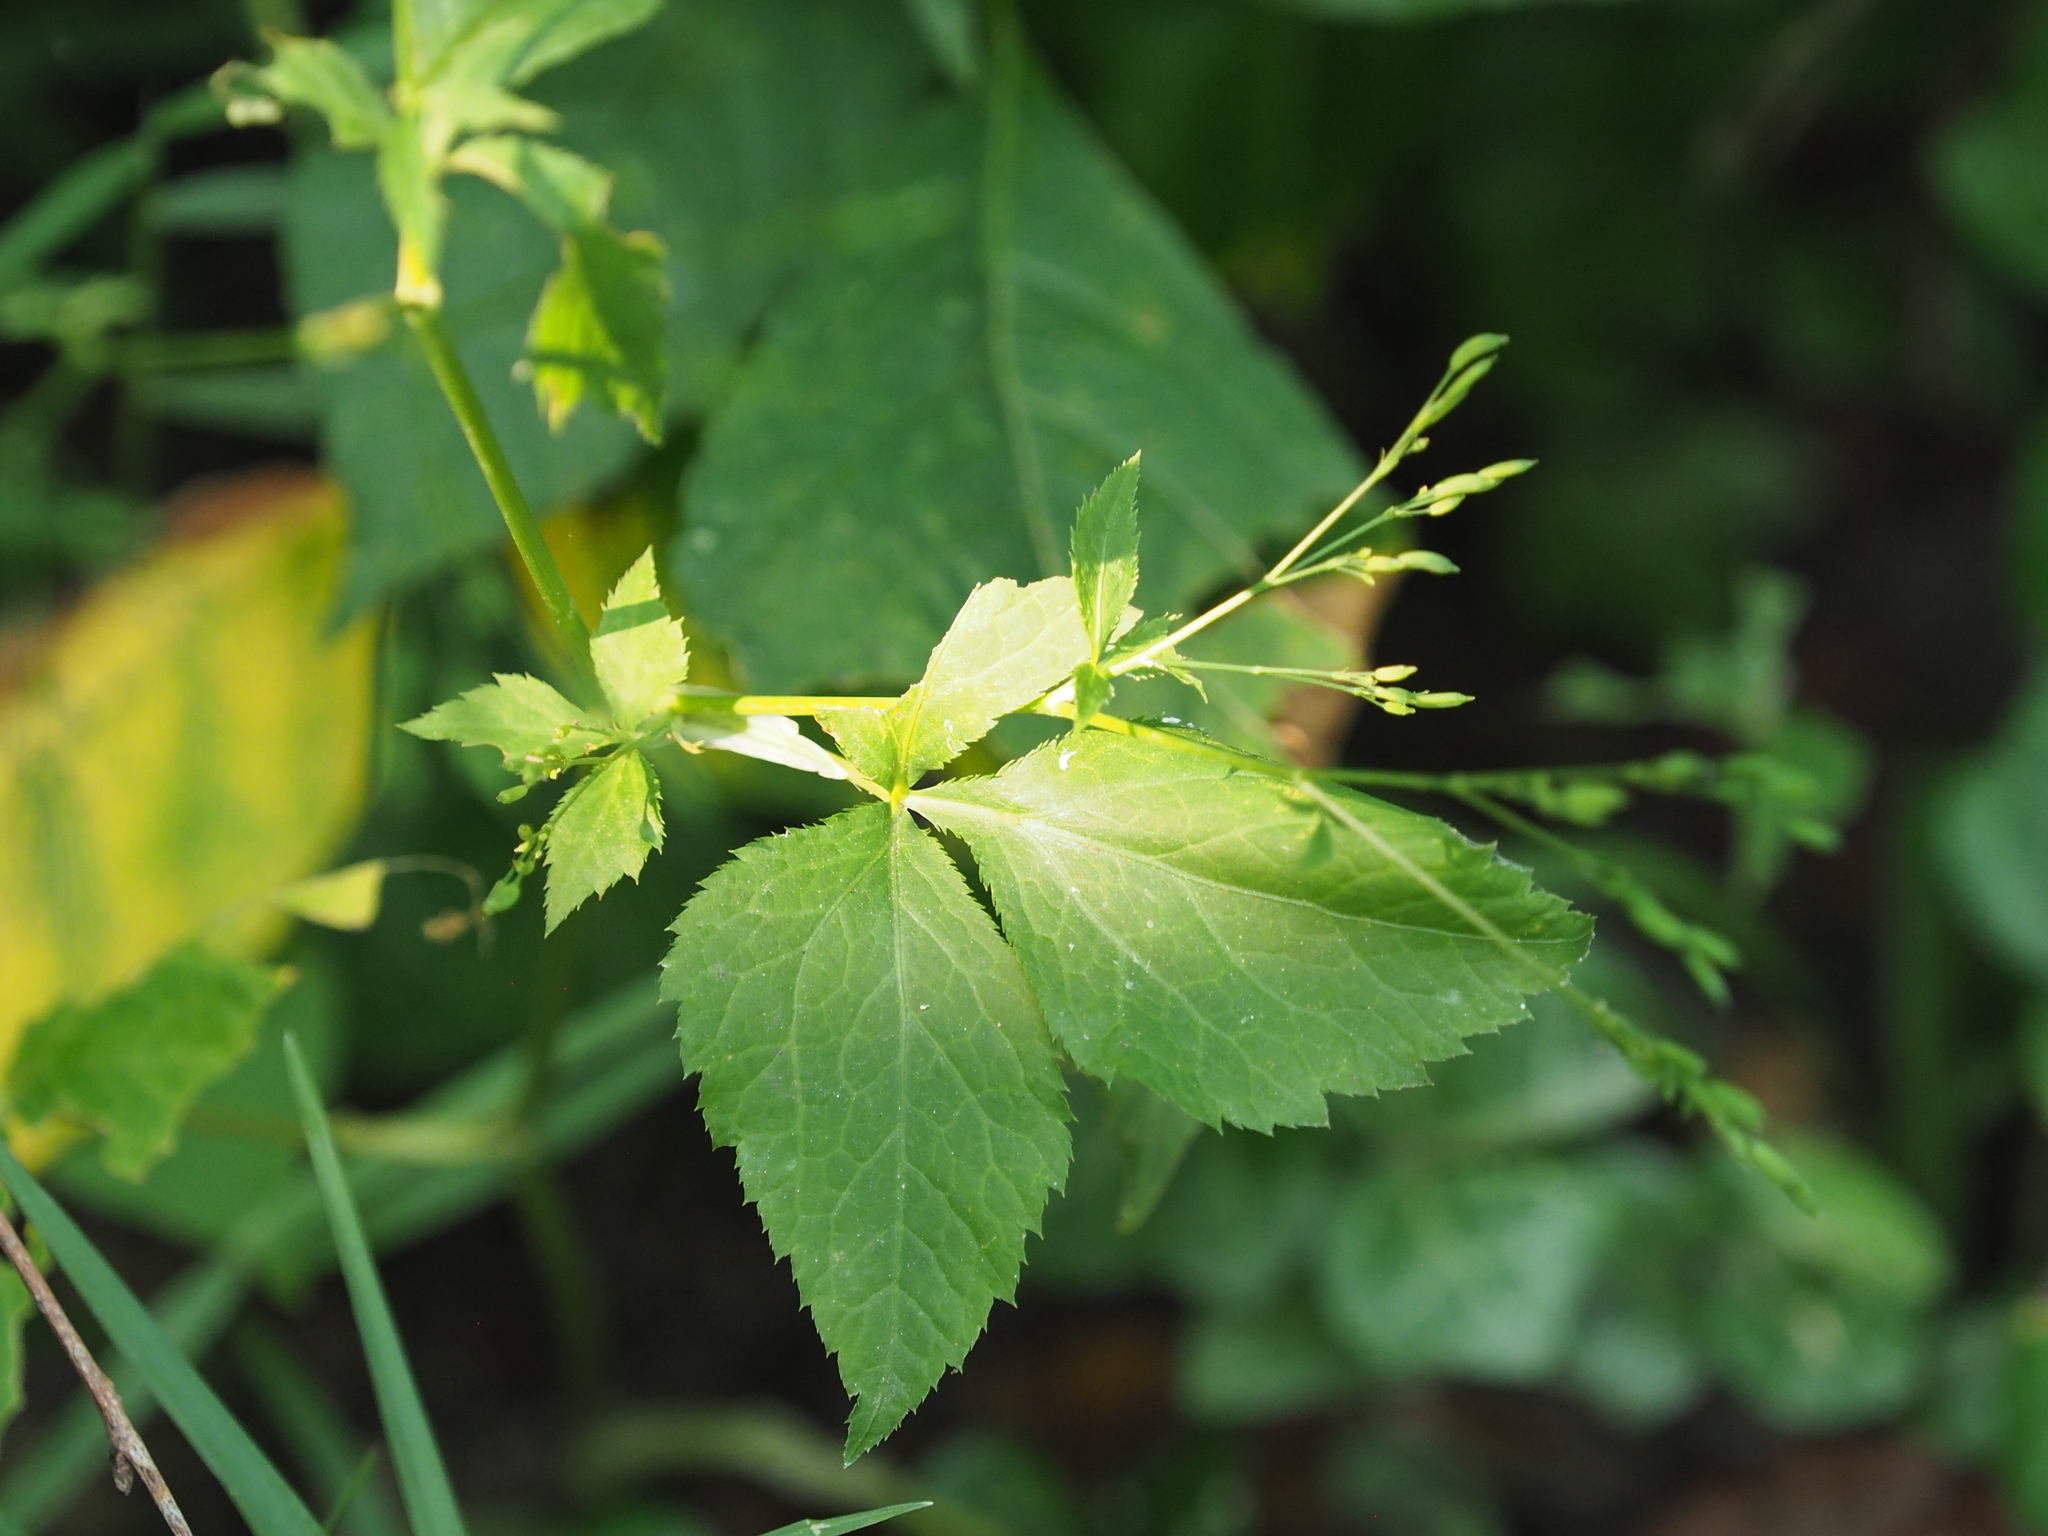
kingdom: Plantae
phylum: Tracheophyta
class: Magnoliopsida
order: Apiales
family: Apiaceae
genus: Cryptotaenia
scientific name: Cryptotaenia canadensis
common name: Honewort
